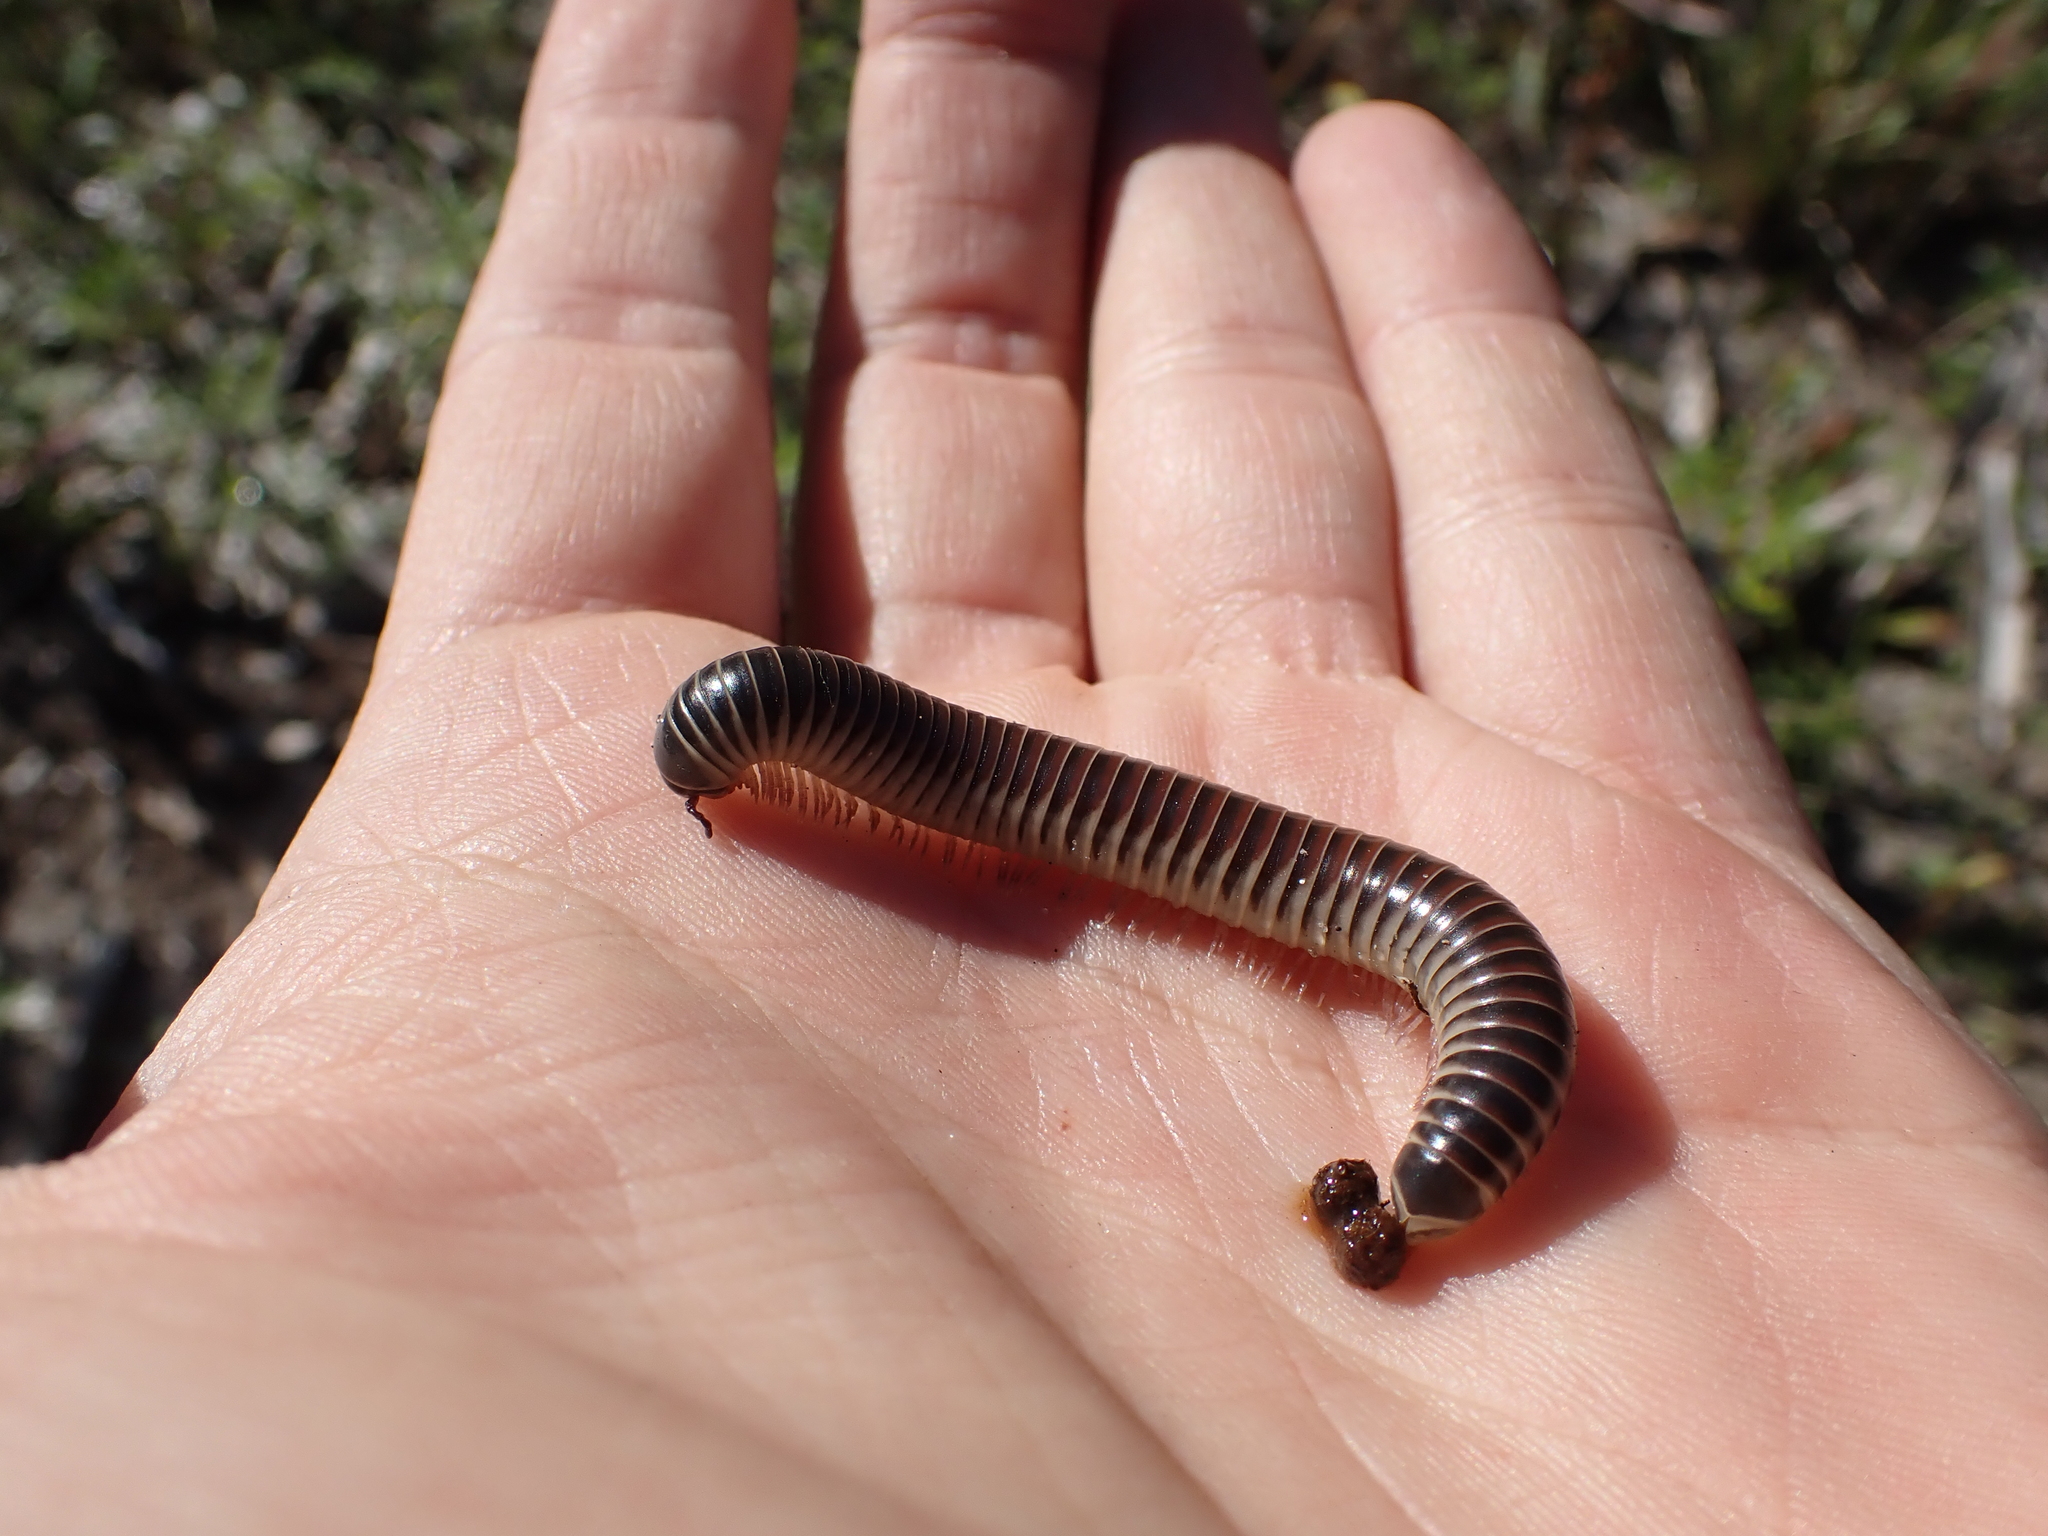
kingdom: Animalia
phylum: Arthropoda
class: Diplopoda
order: Spirobolida
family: Spirobolidae
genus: Chicobolus
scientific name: Chicobolus spinigerus
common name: Florida ivory millipede
